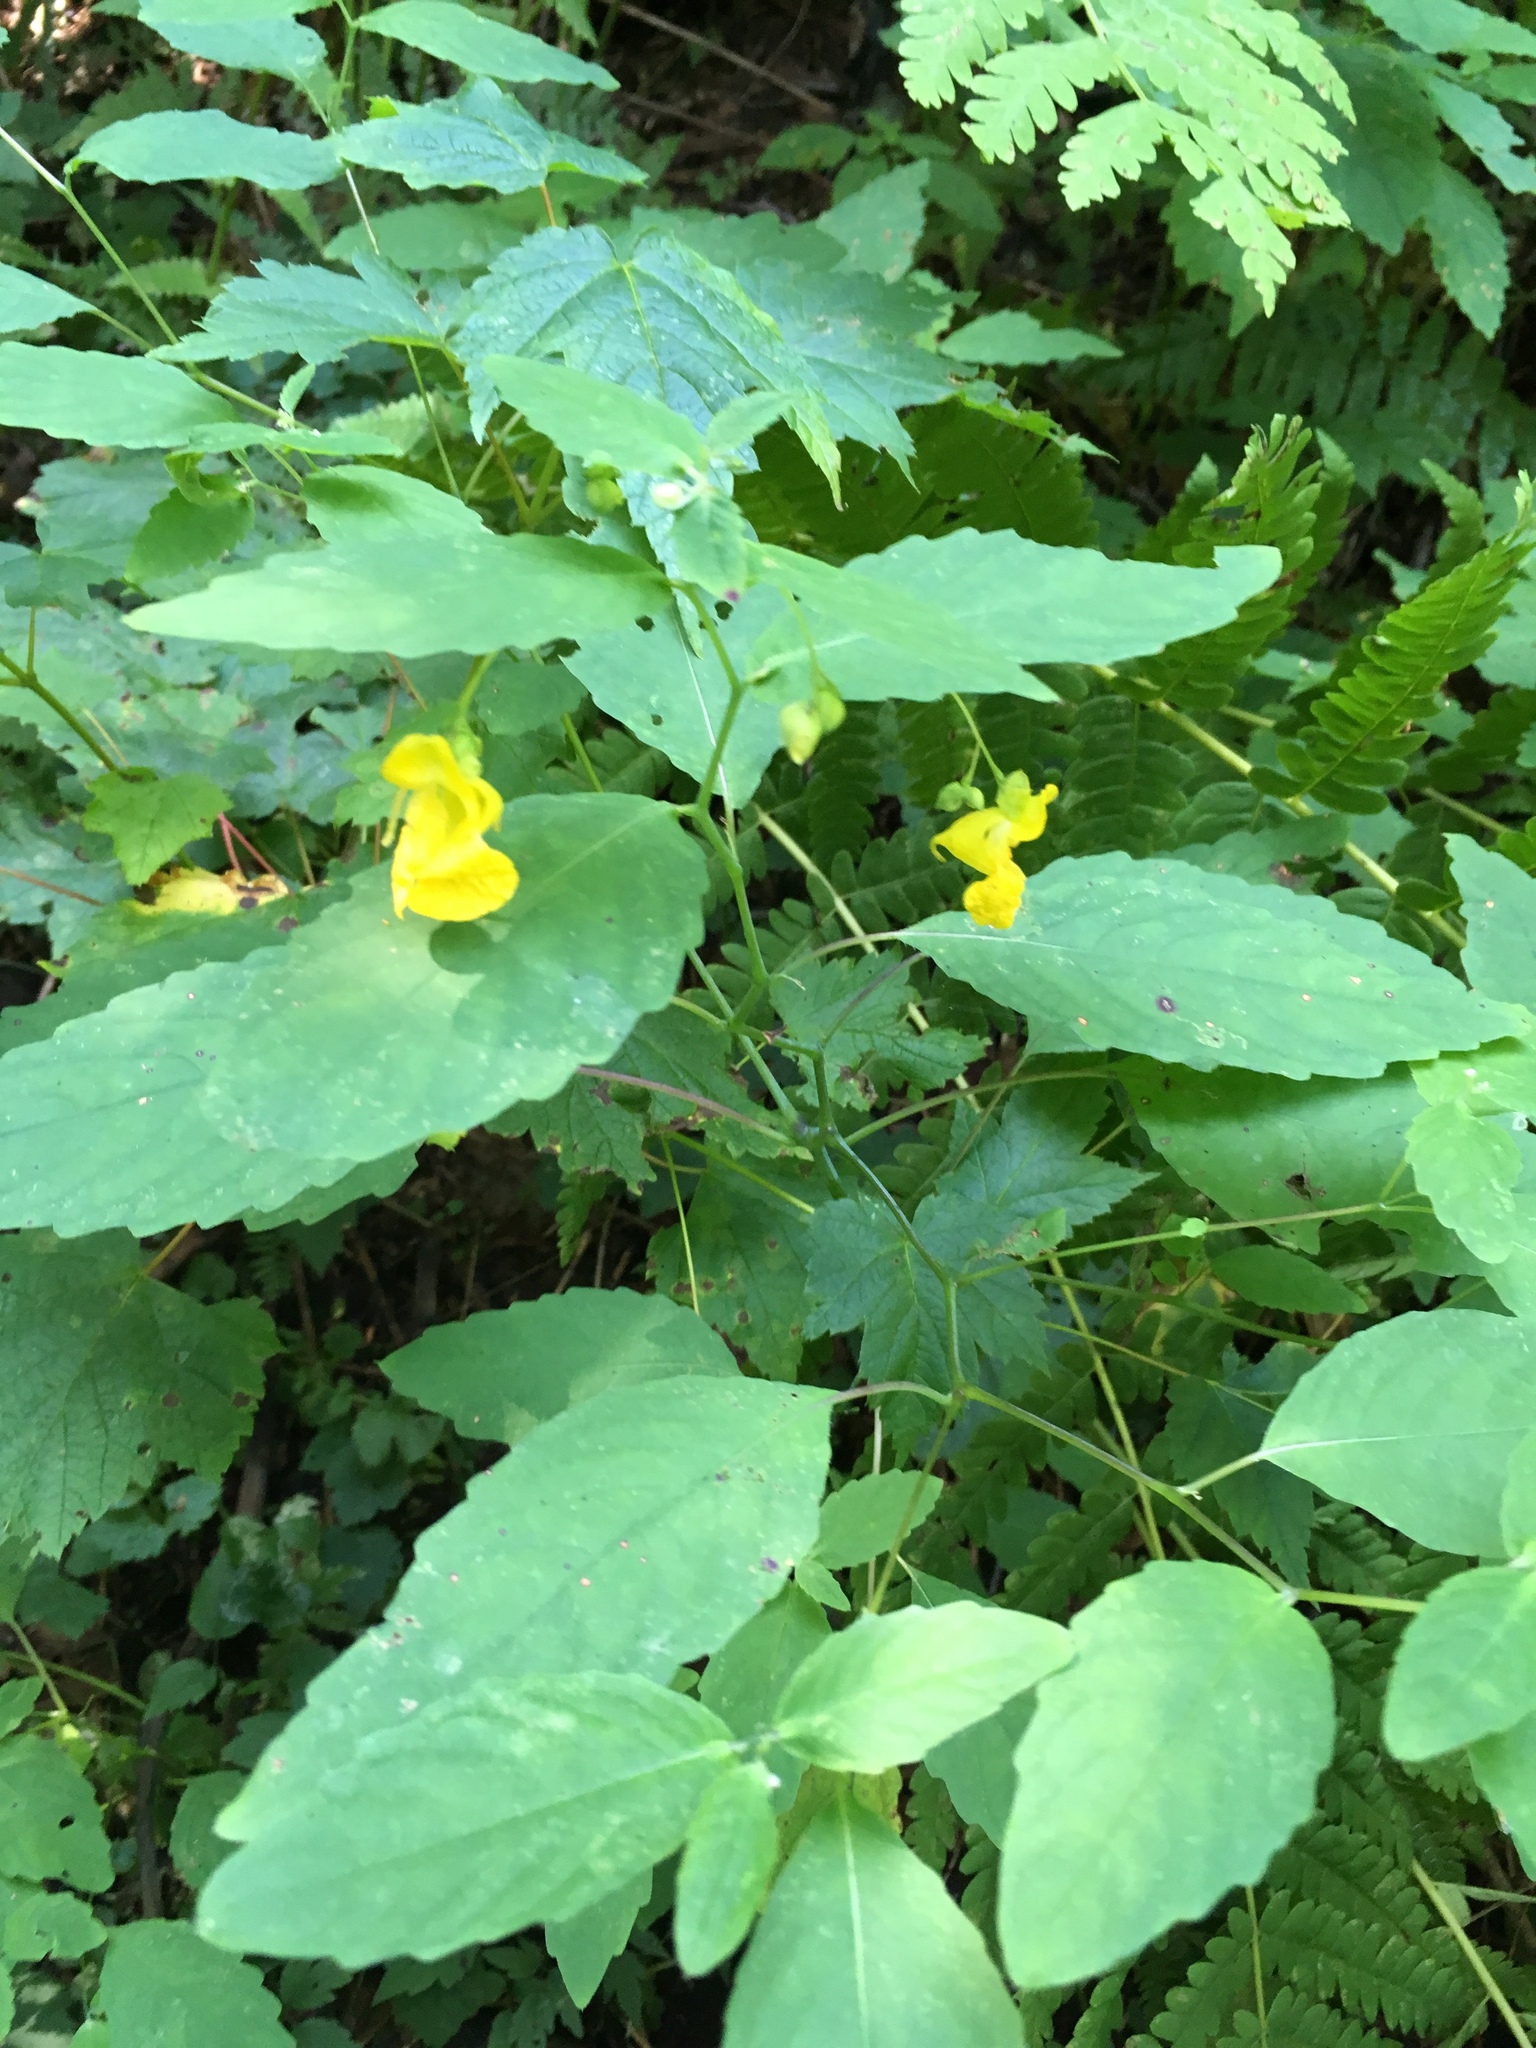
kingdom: Plantae
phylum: Tracheophyta
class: Magnoliopsida
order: Ericales
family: Balsaminaceae
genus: Impatiens
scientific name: Impatiens pallida
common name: Pale snapweed
